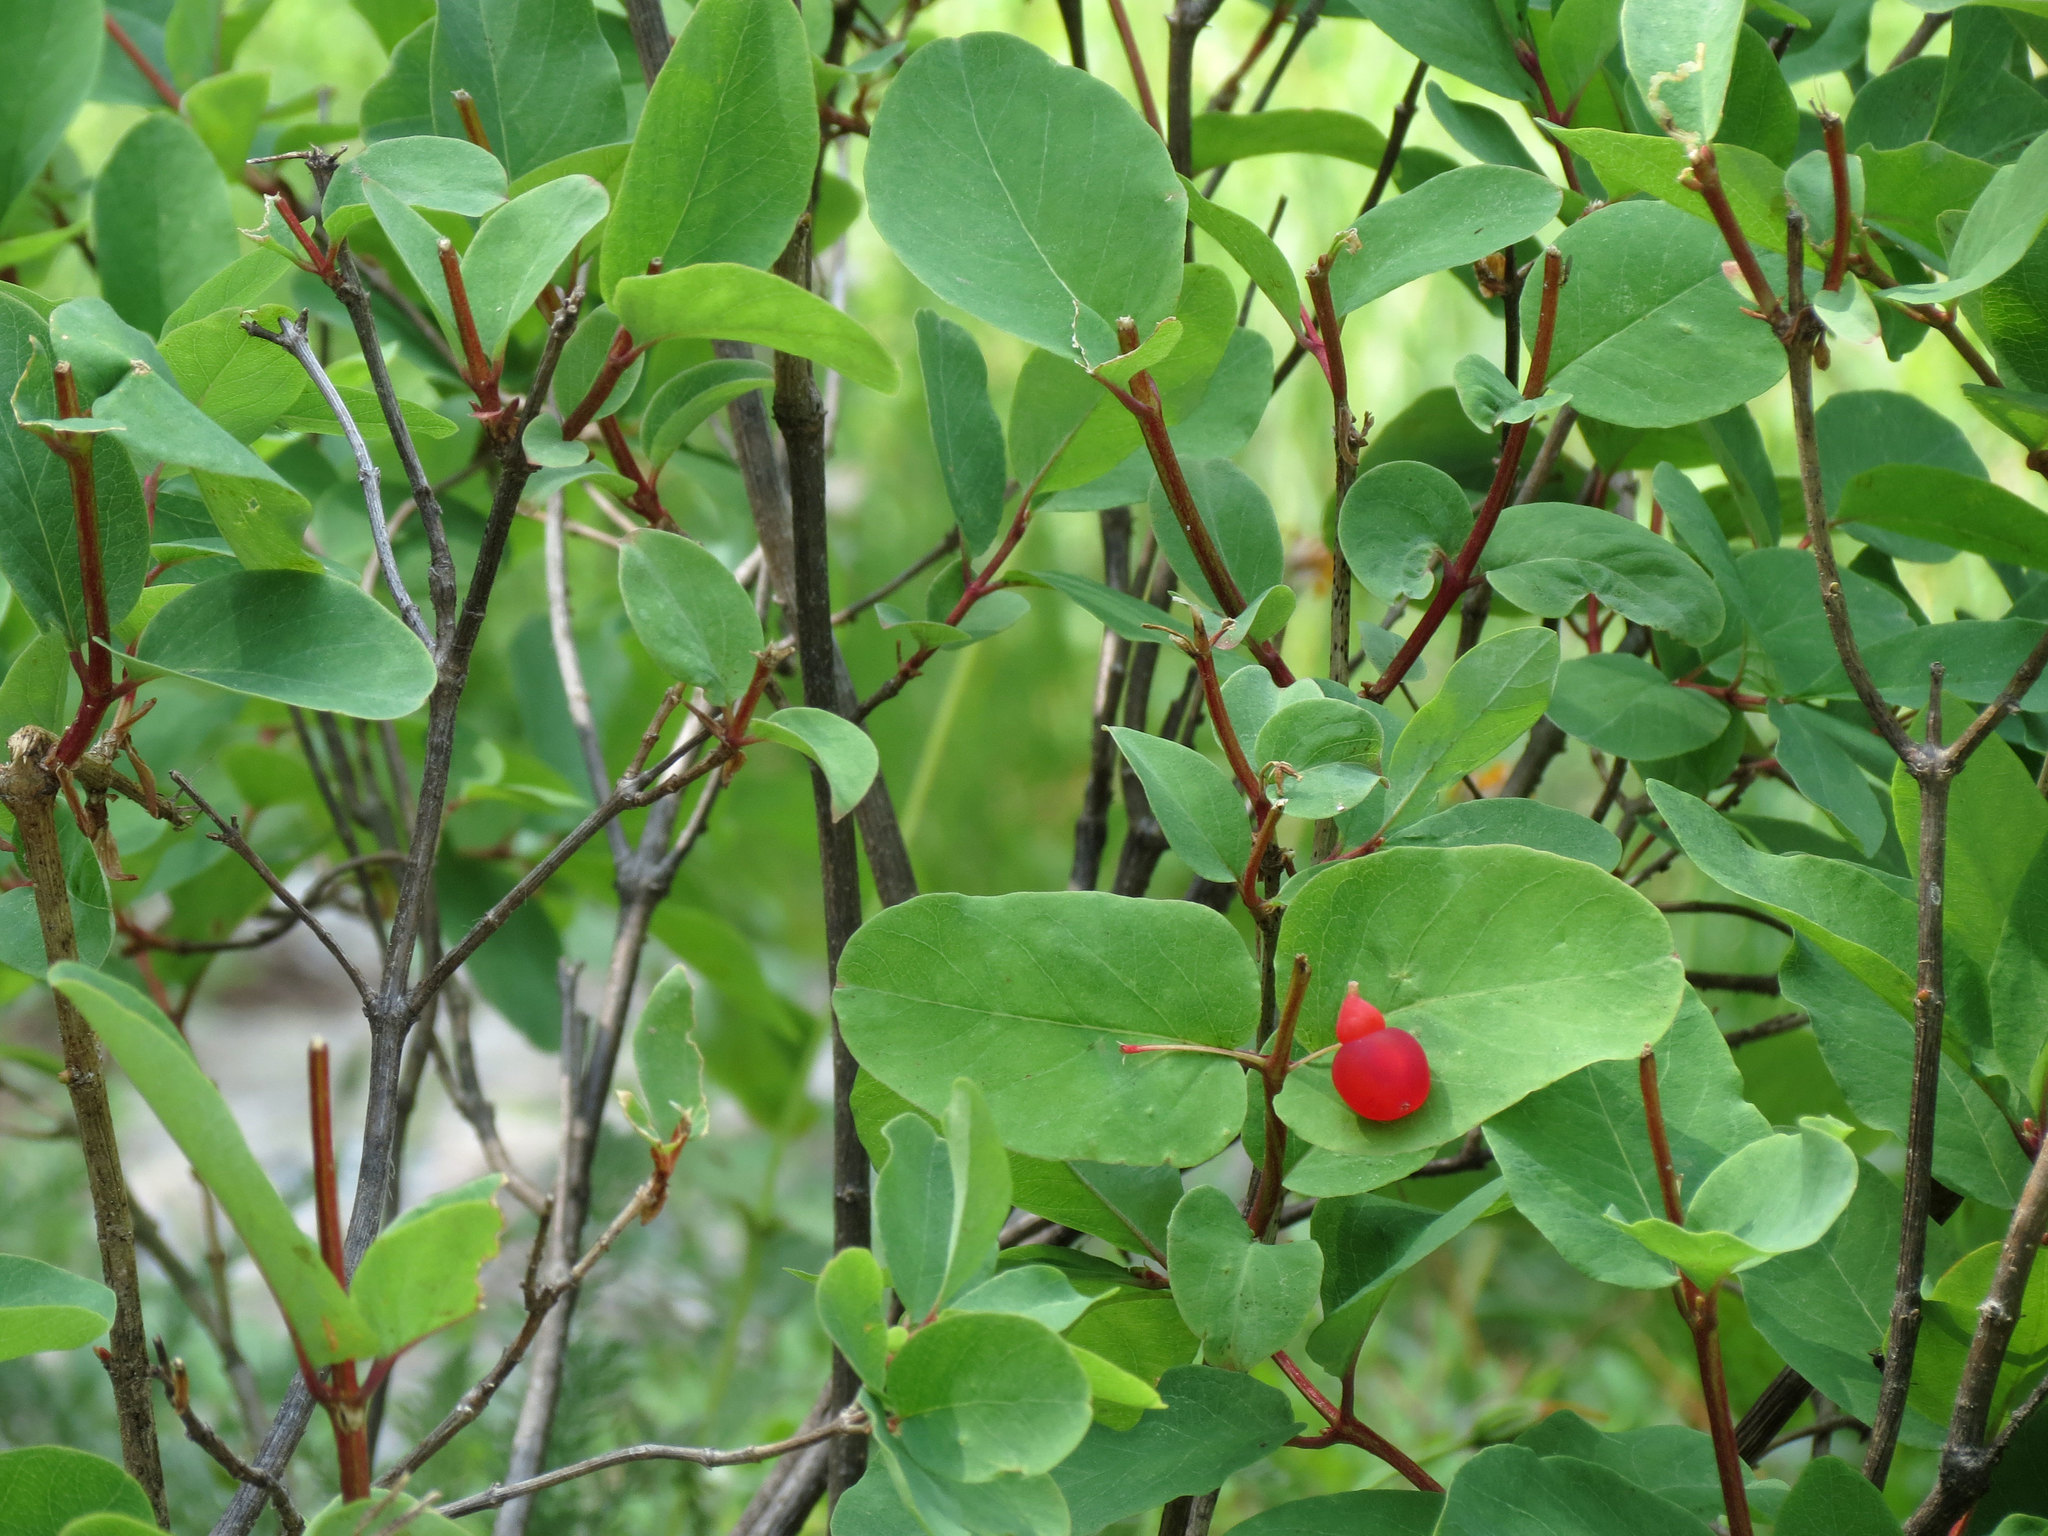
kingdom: Plantae
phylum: Tracheophyta
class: Magnoliopsida
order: Dipsacales
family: Caprifoliaceae
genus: Lonicera
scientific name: Lonicera utahensis
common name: Utah honeysuckle
